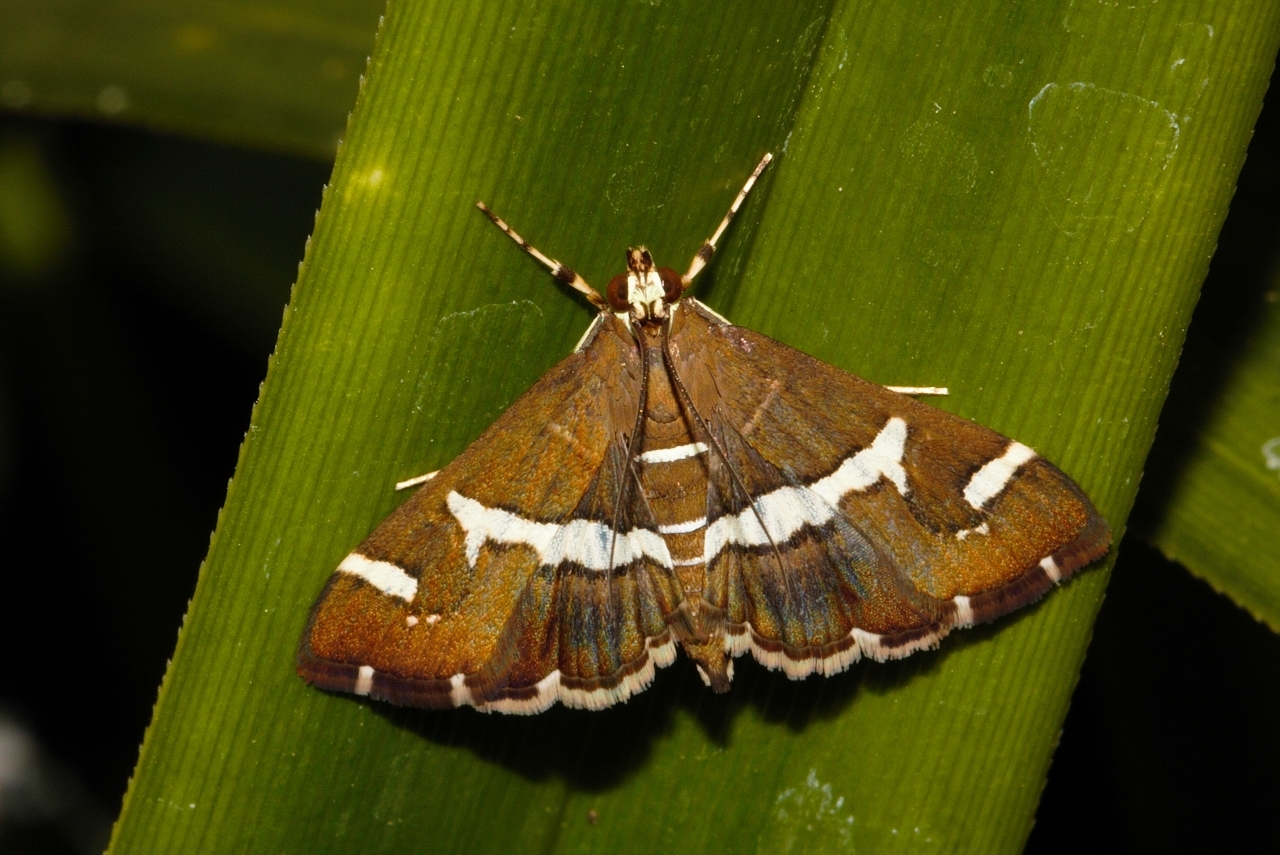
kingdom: Animalia
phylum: Arthropoda
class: Insecta
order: Lepidoptera
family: Crambidae
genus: Spoladea
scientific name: Spoladea recurvalis
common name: Beet webworm moth
